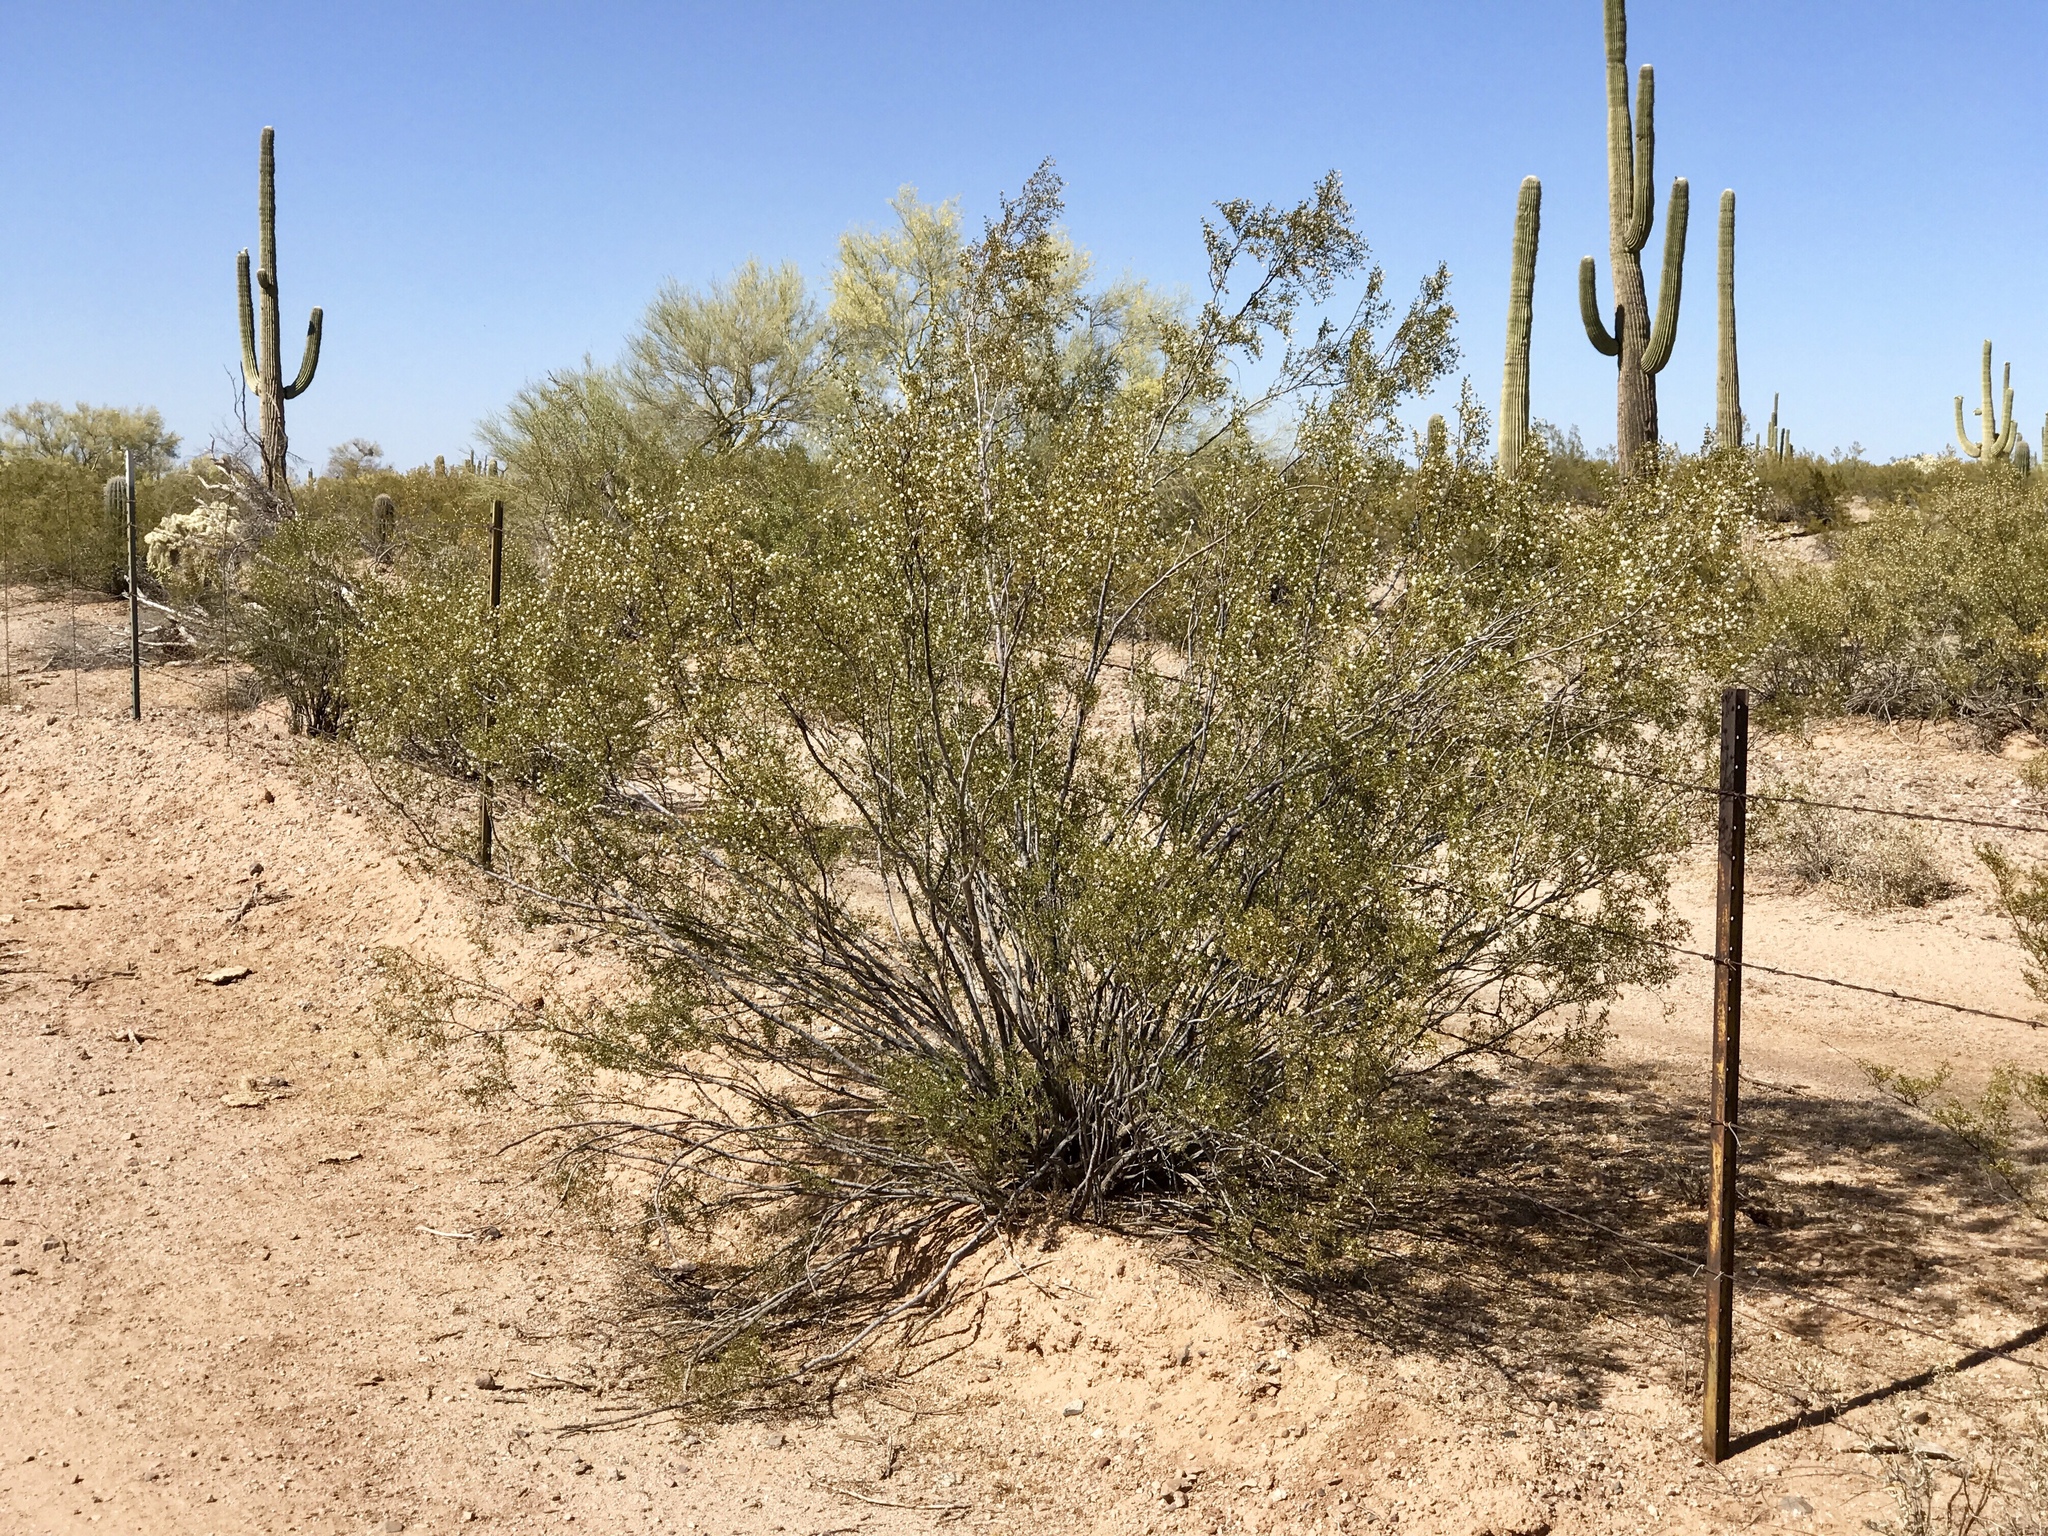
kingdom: Plantae
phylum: Tracheophyta
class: Magnoliopsida
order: Zygophyllales
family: Zygophyllaceae
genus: Larrea
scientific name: Larrea tridentata
